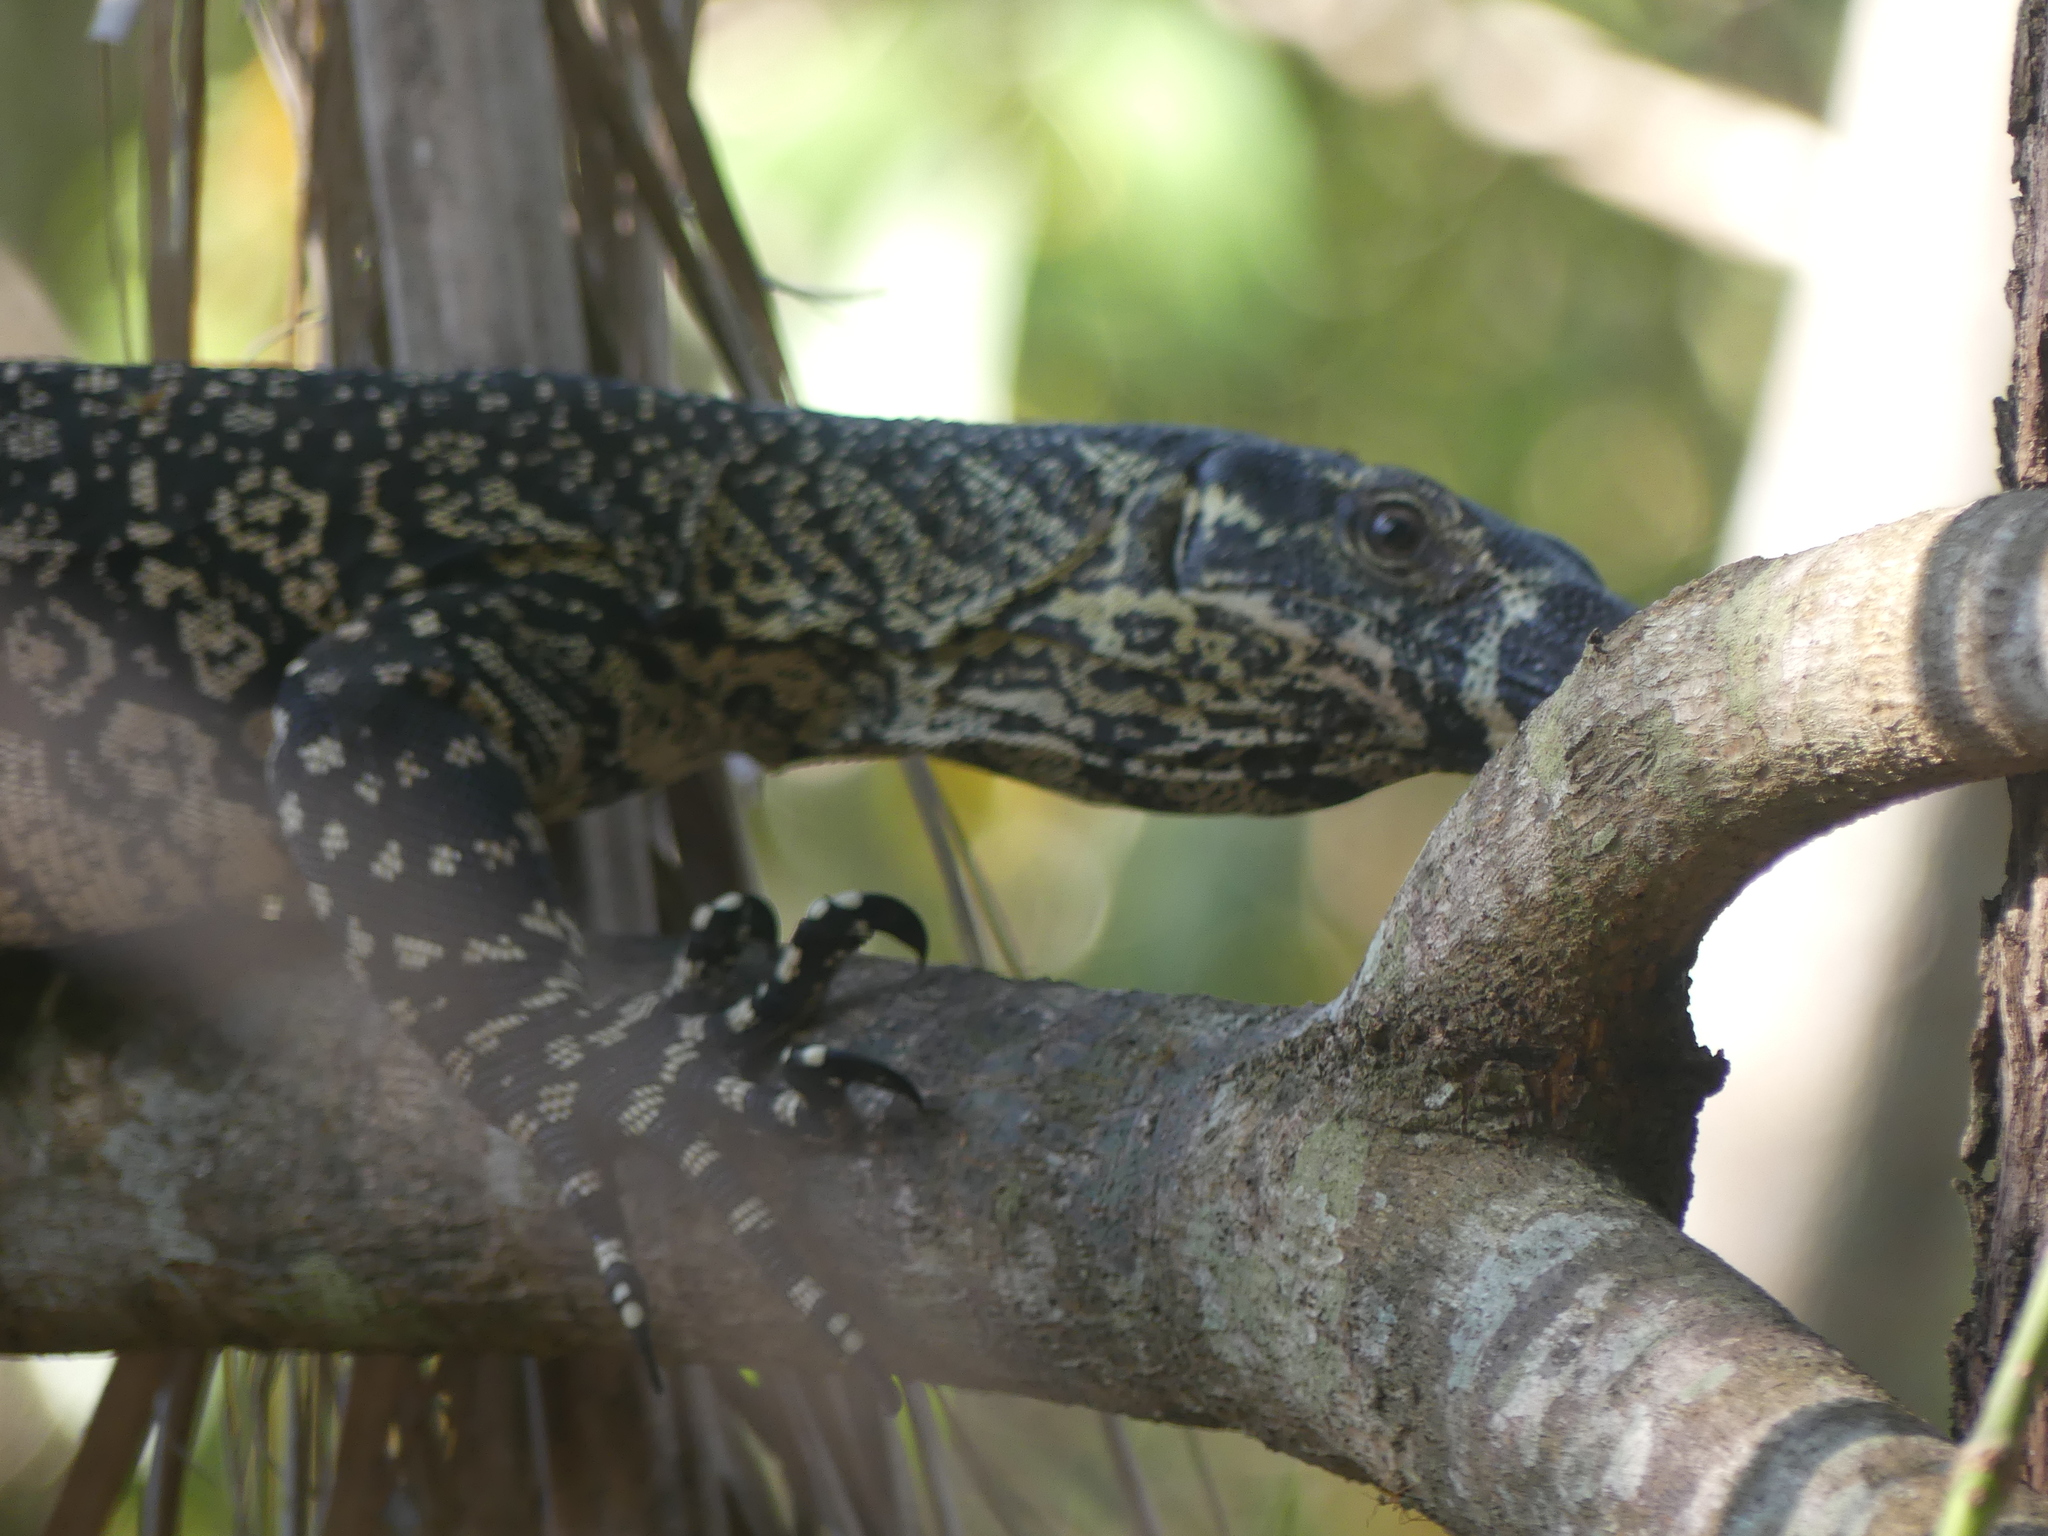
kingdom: Animalia
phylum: Chordata
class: Squamata
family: Varanidae
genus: Varanus
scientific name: Varanus varius
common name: Lace monitor
